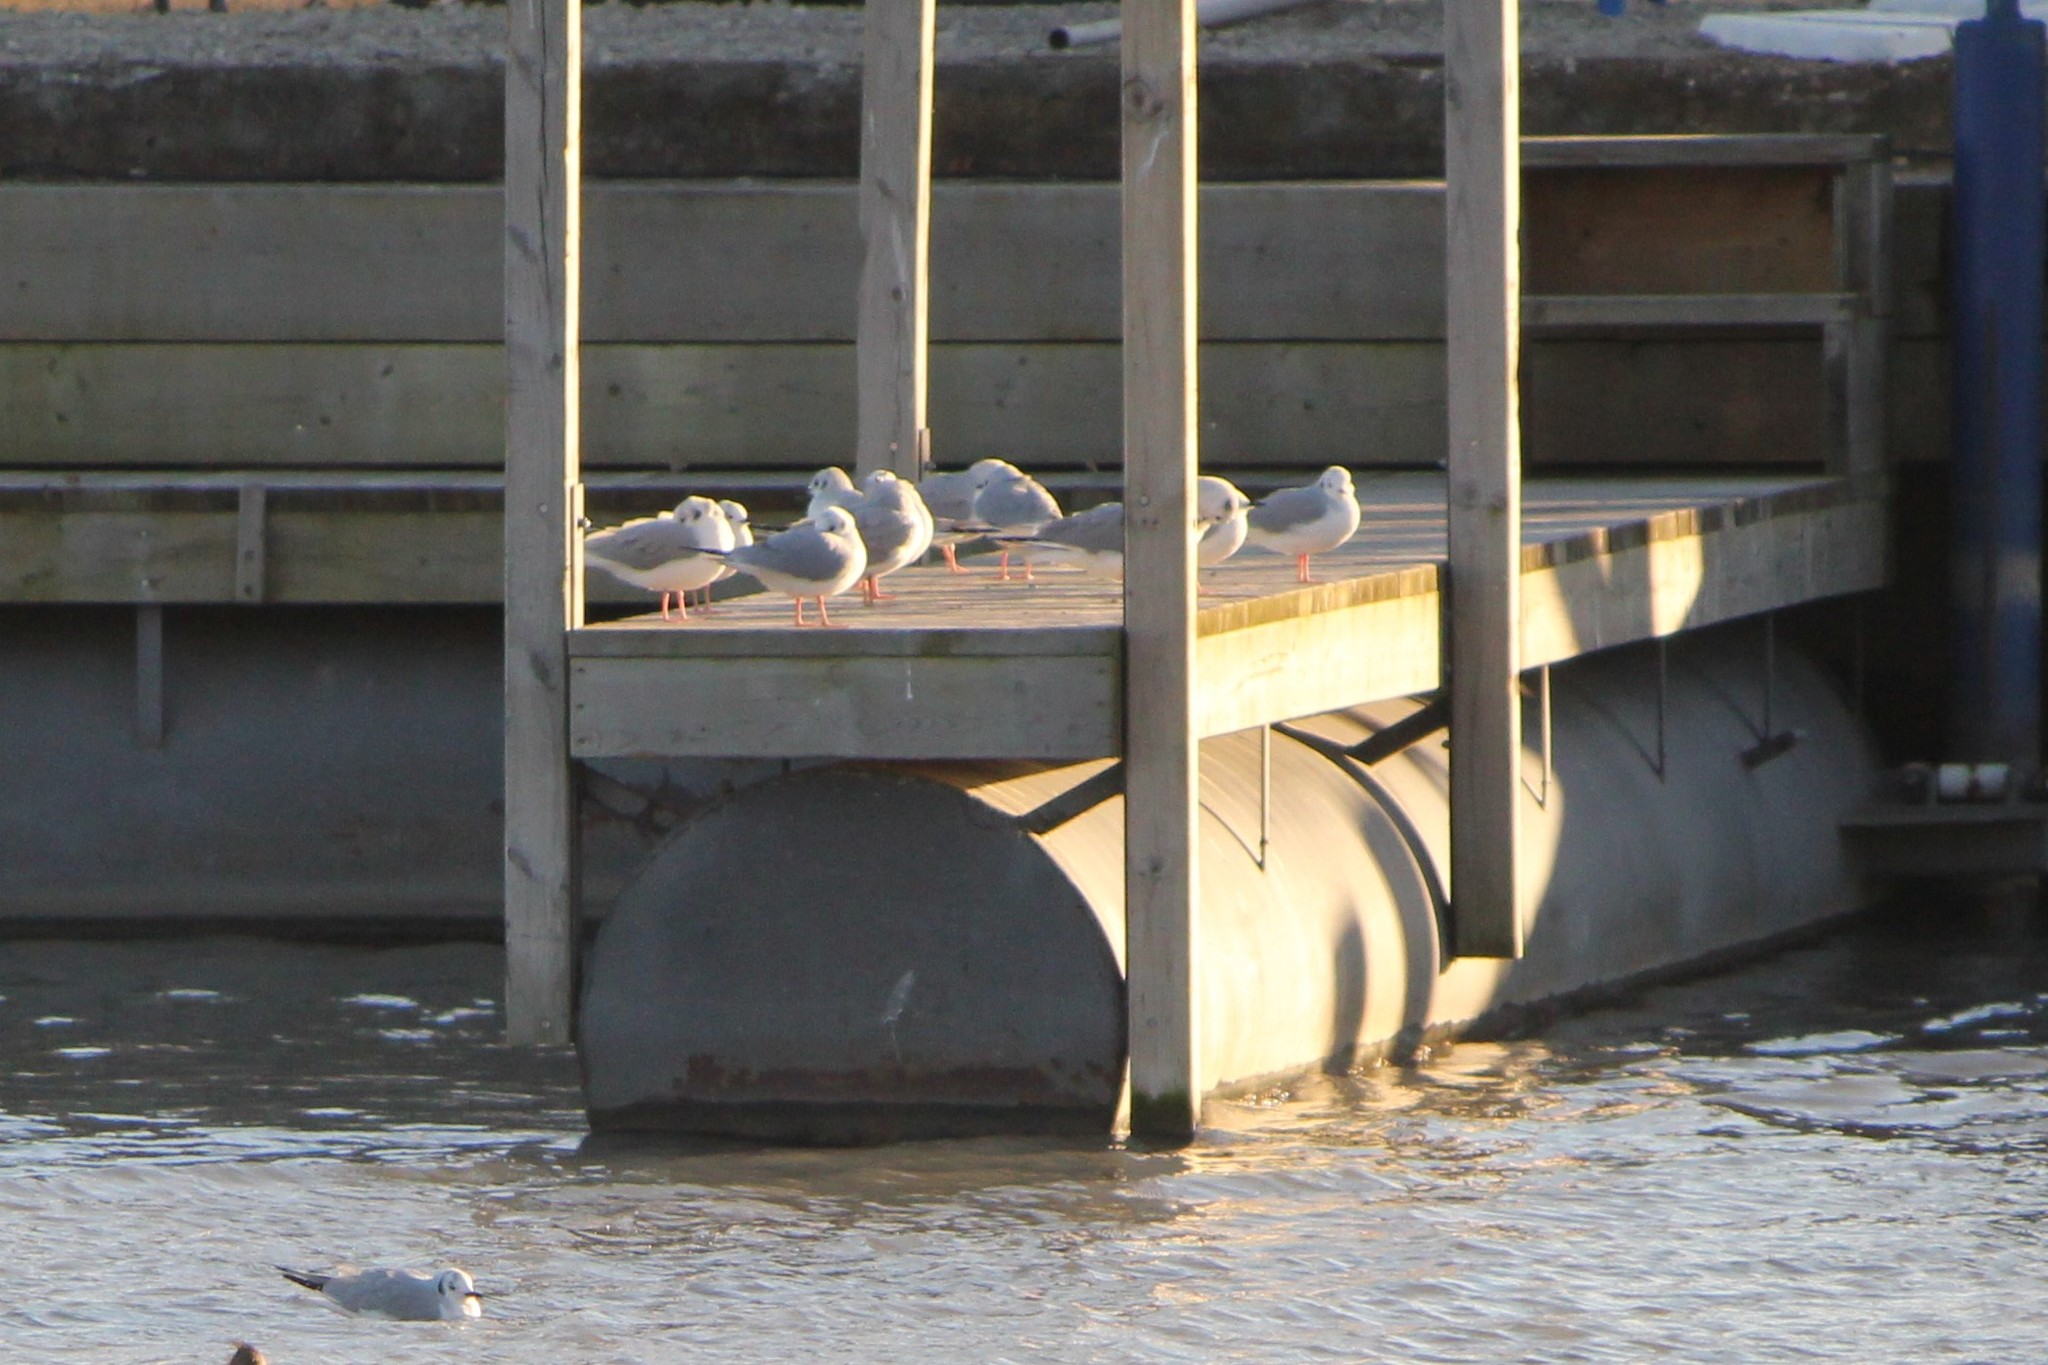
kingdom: Animalia
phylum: Chordata
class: Aves
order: Charadriiformes
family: Laridae
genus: Chroicocephalus
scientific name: Chroicocephalus philadelphia
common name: Bonaparte's gull
